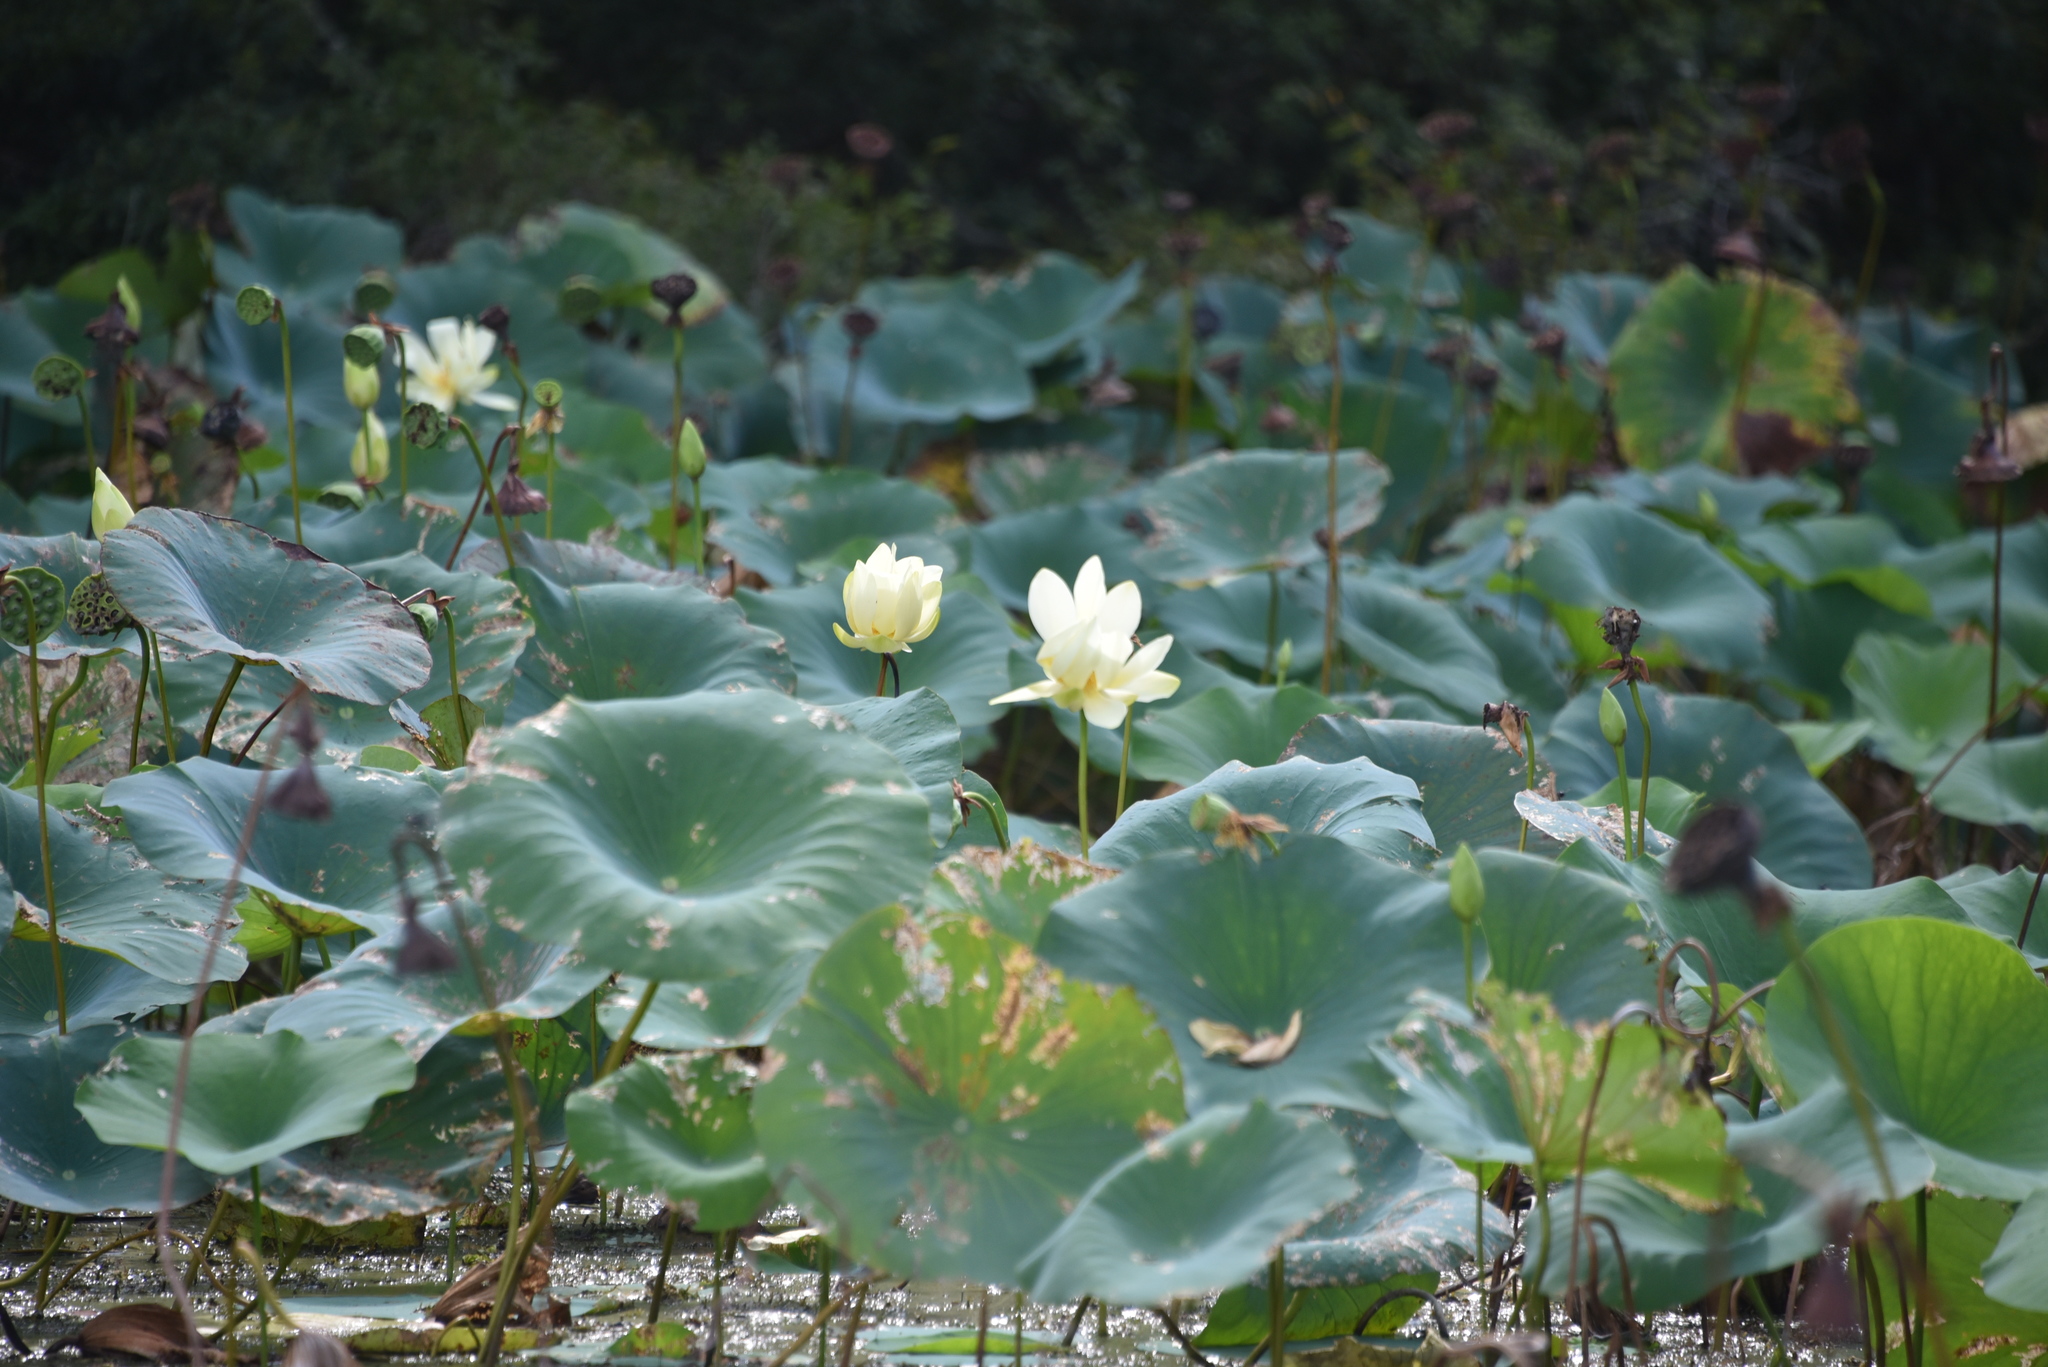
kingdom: Plantae
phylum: Tracheophyta
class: Magnoliopsida
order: Proteales
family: Nelumbonaceae
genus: Nelumbo
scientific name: Nelumbo lutea
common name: American lotus
